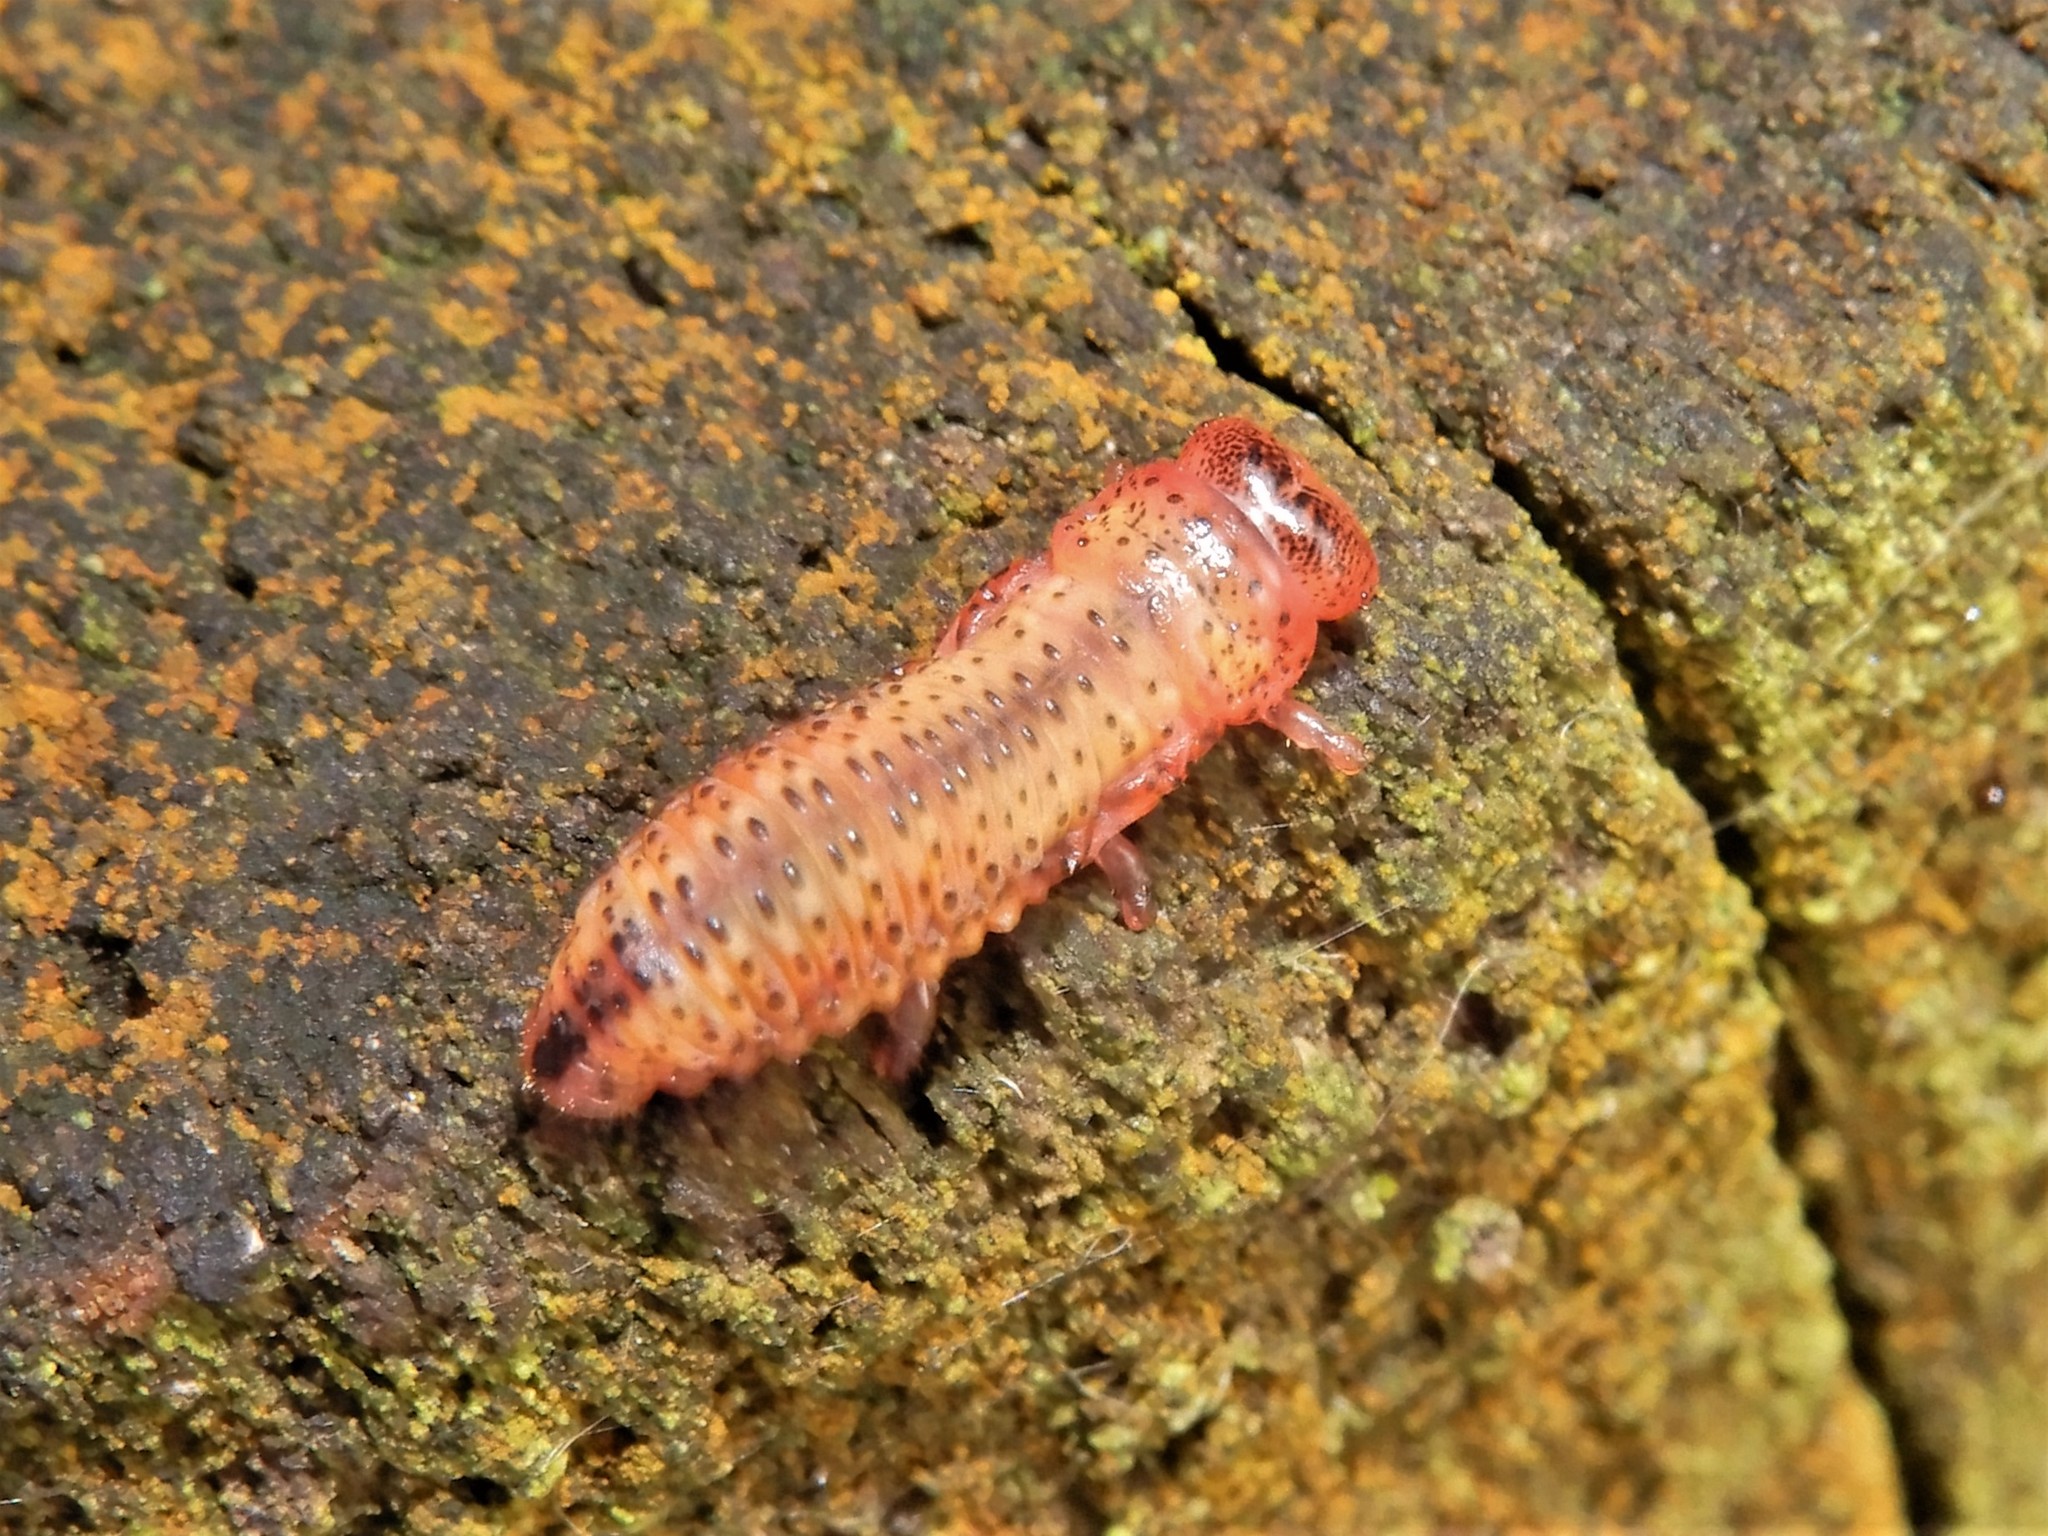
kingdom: Animalia
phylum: Arthropoda
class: Insecta
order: Coleoptera
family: Chrysomelidae
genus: Paropsis
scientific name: Paropsis charybdis
